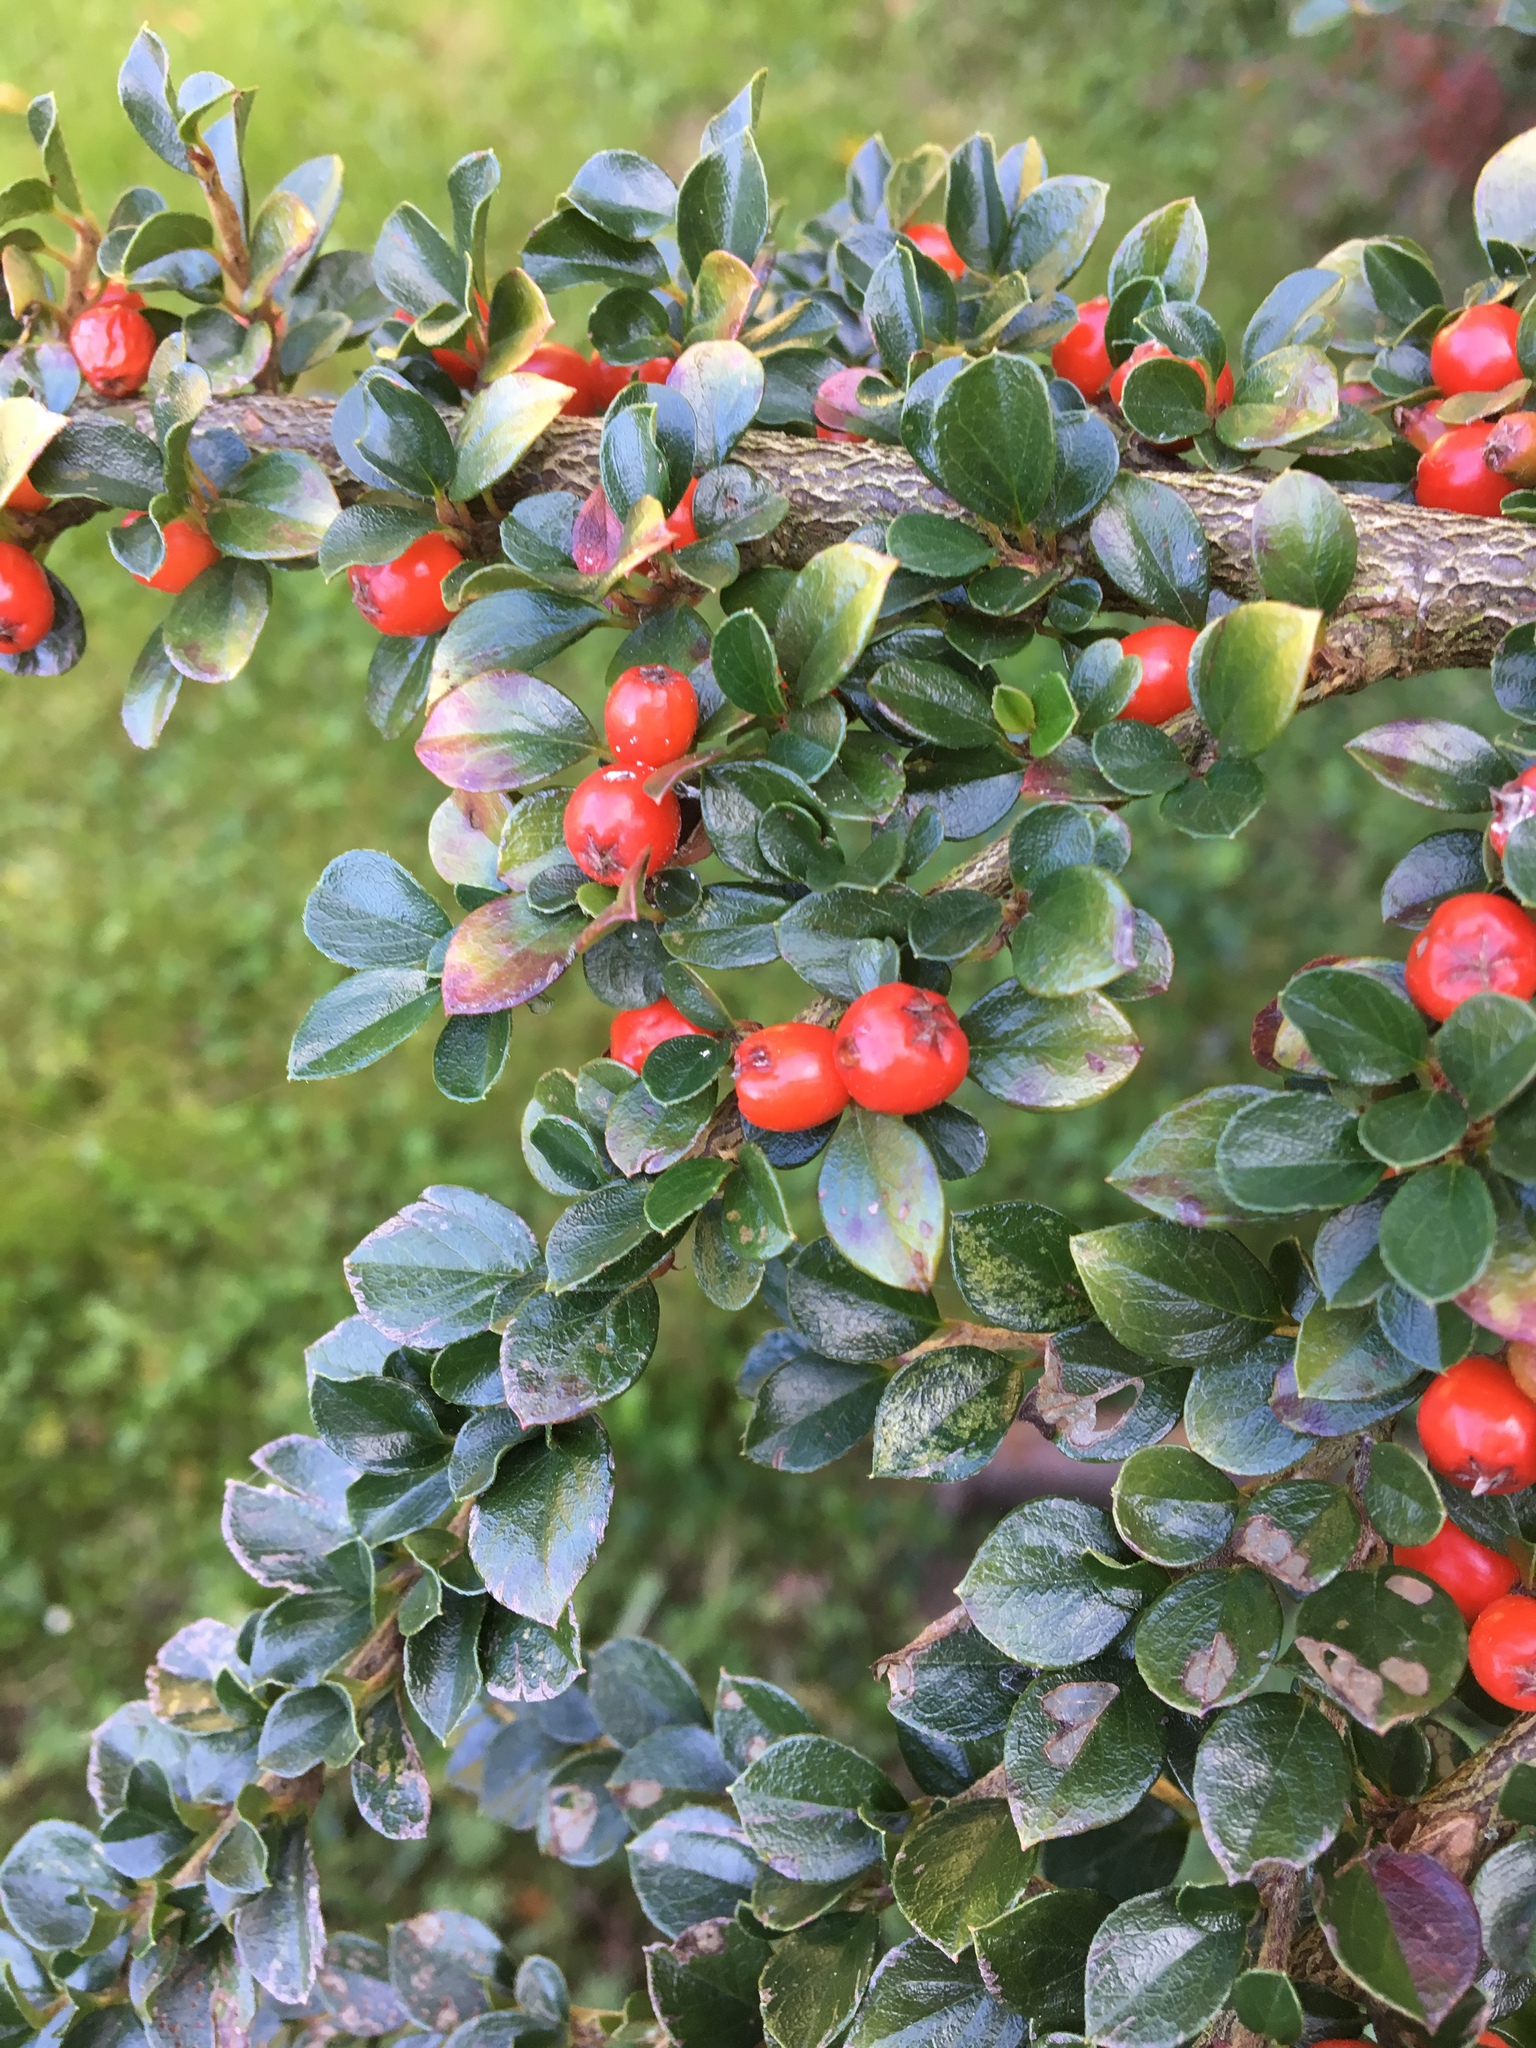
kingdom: Plantae
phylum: Tracheophyta
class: Magnoliopsida
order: Rosales
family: Rosaceae
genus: Cotoneaster
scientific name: Cotoneaster horizontalis
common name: Wall cotoneaster
